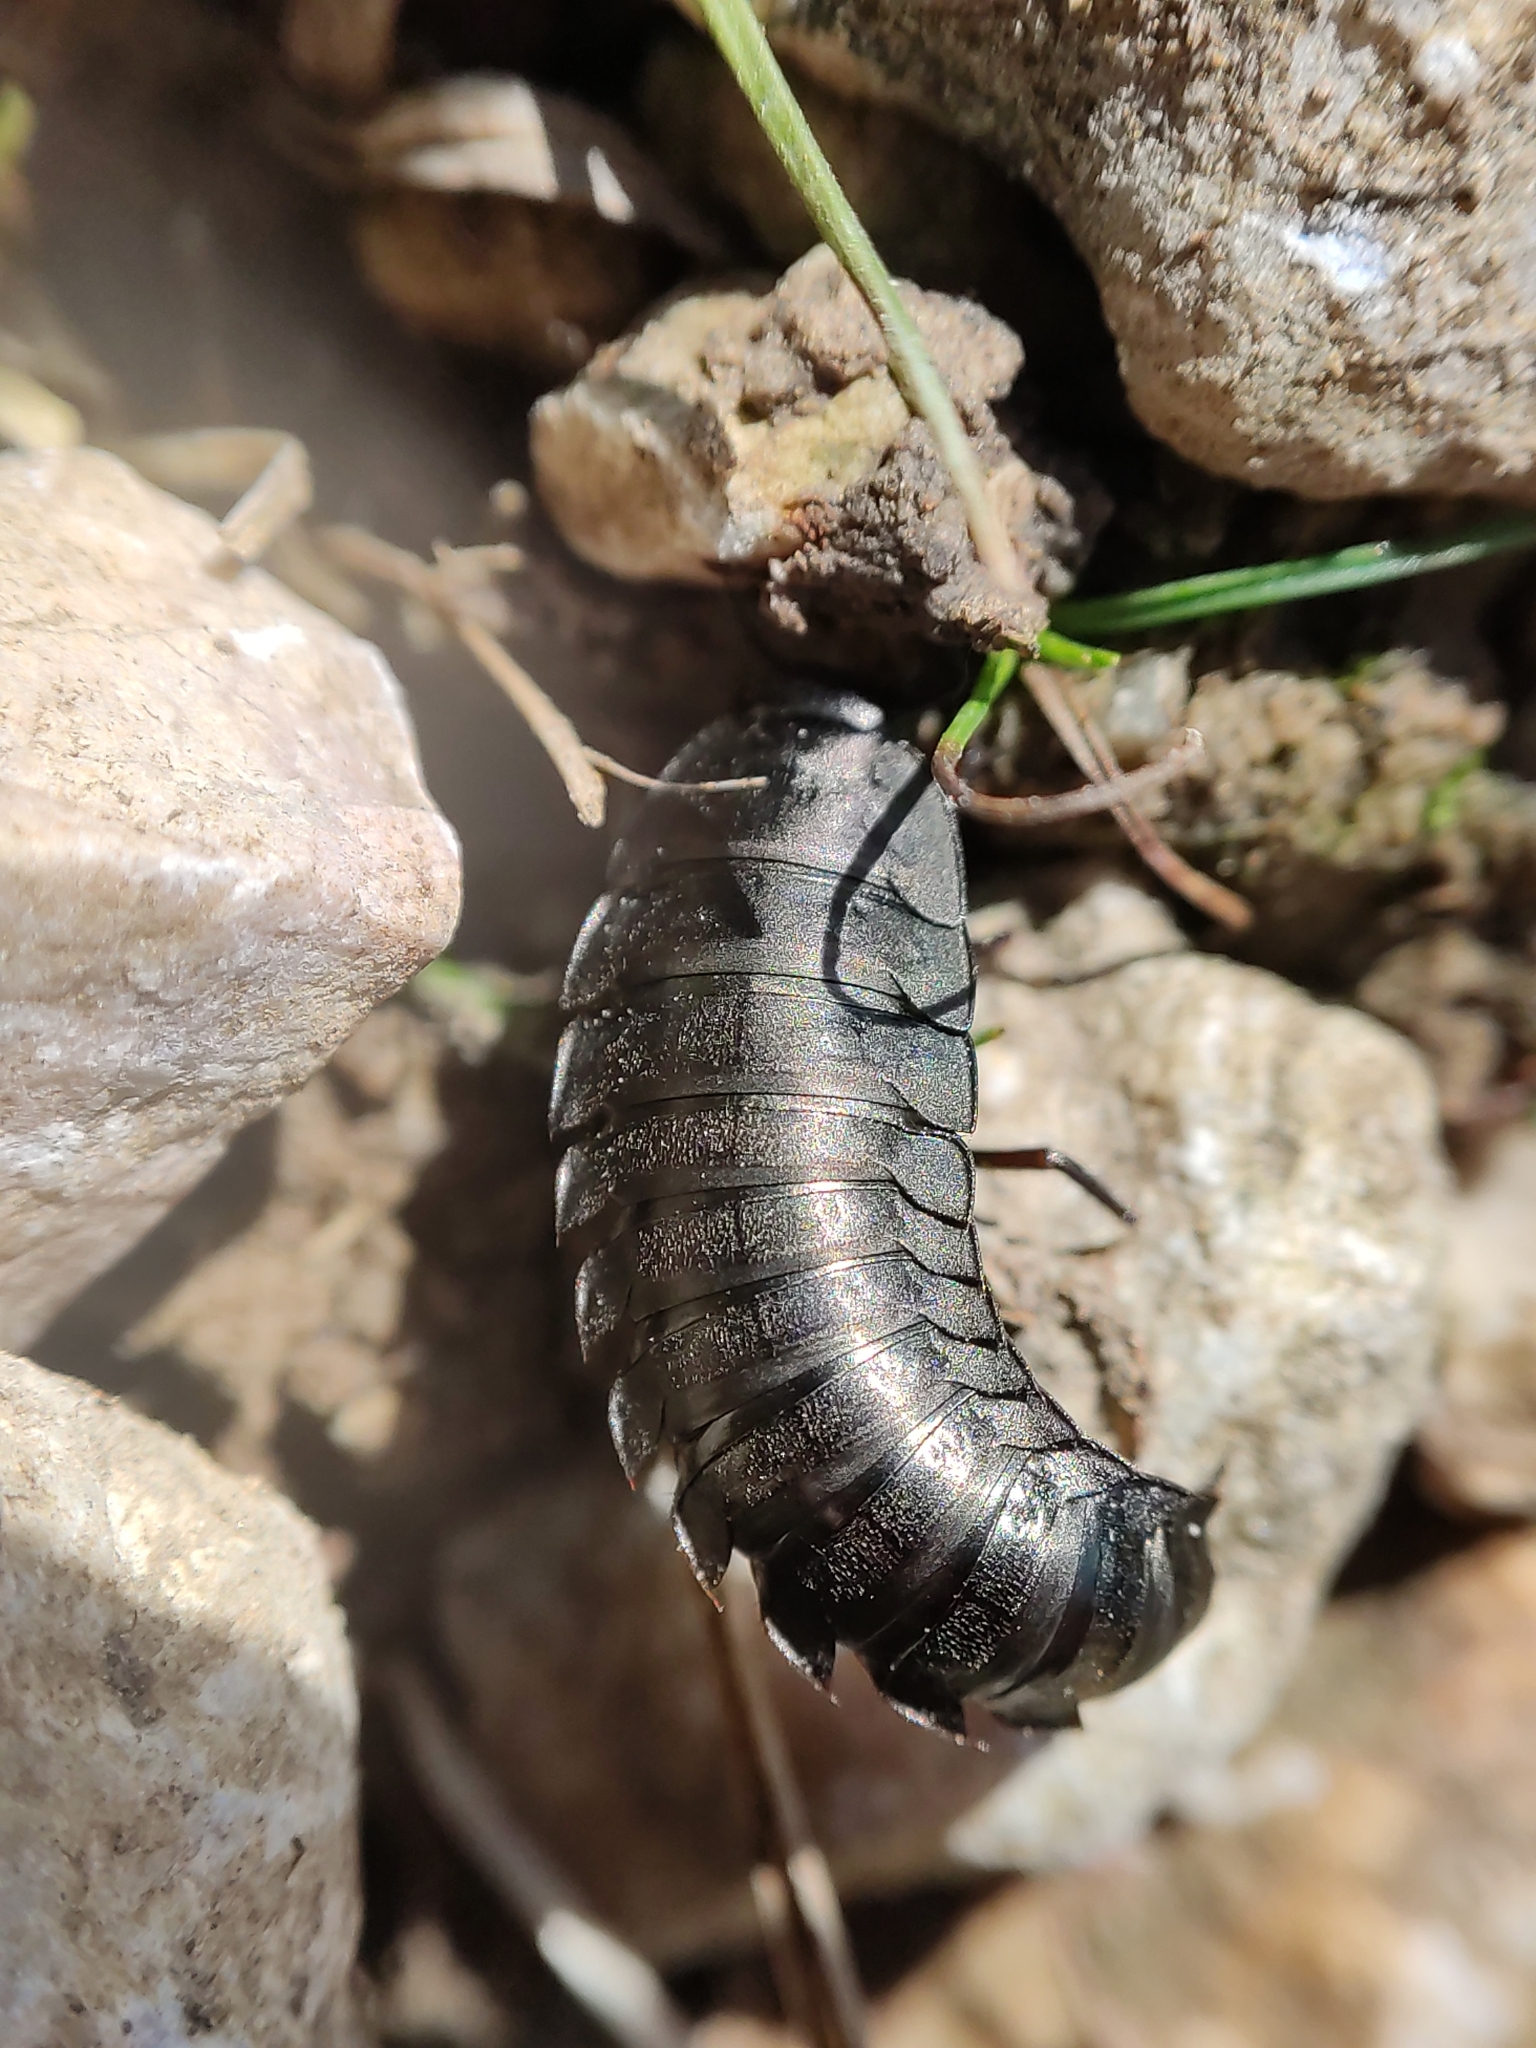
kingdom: Animalia
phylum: Arthropoda
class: Insecta
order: Coleoptera
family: Staphylinidae
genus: Silpha
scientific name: Silpha carinata
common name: Silphid beetle
